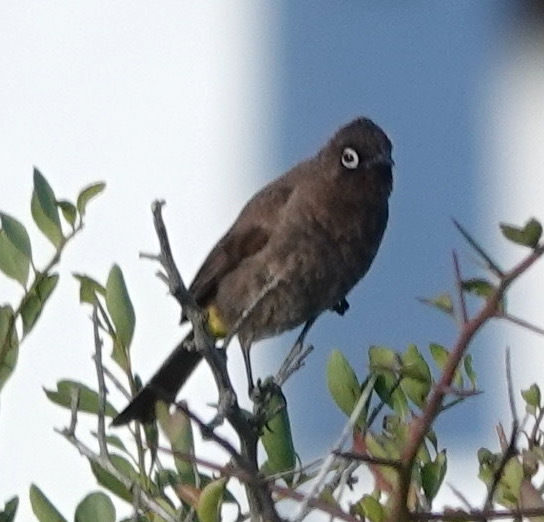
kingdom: Animalia
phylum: Chordata
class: Aves
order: Passeriformes
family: Pycnonotidae
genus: Pycnonotus
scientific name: Pycnonotus capensis
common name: Cape bulbul
